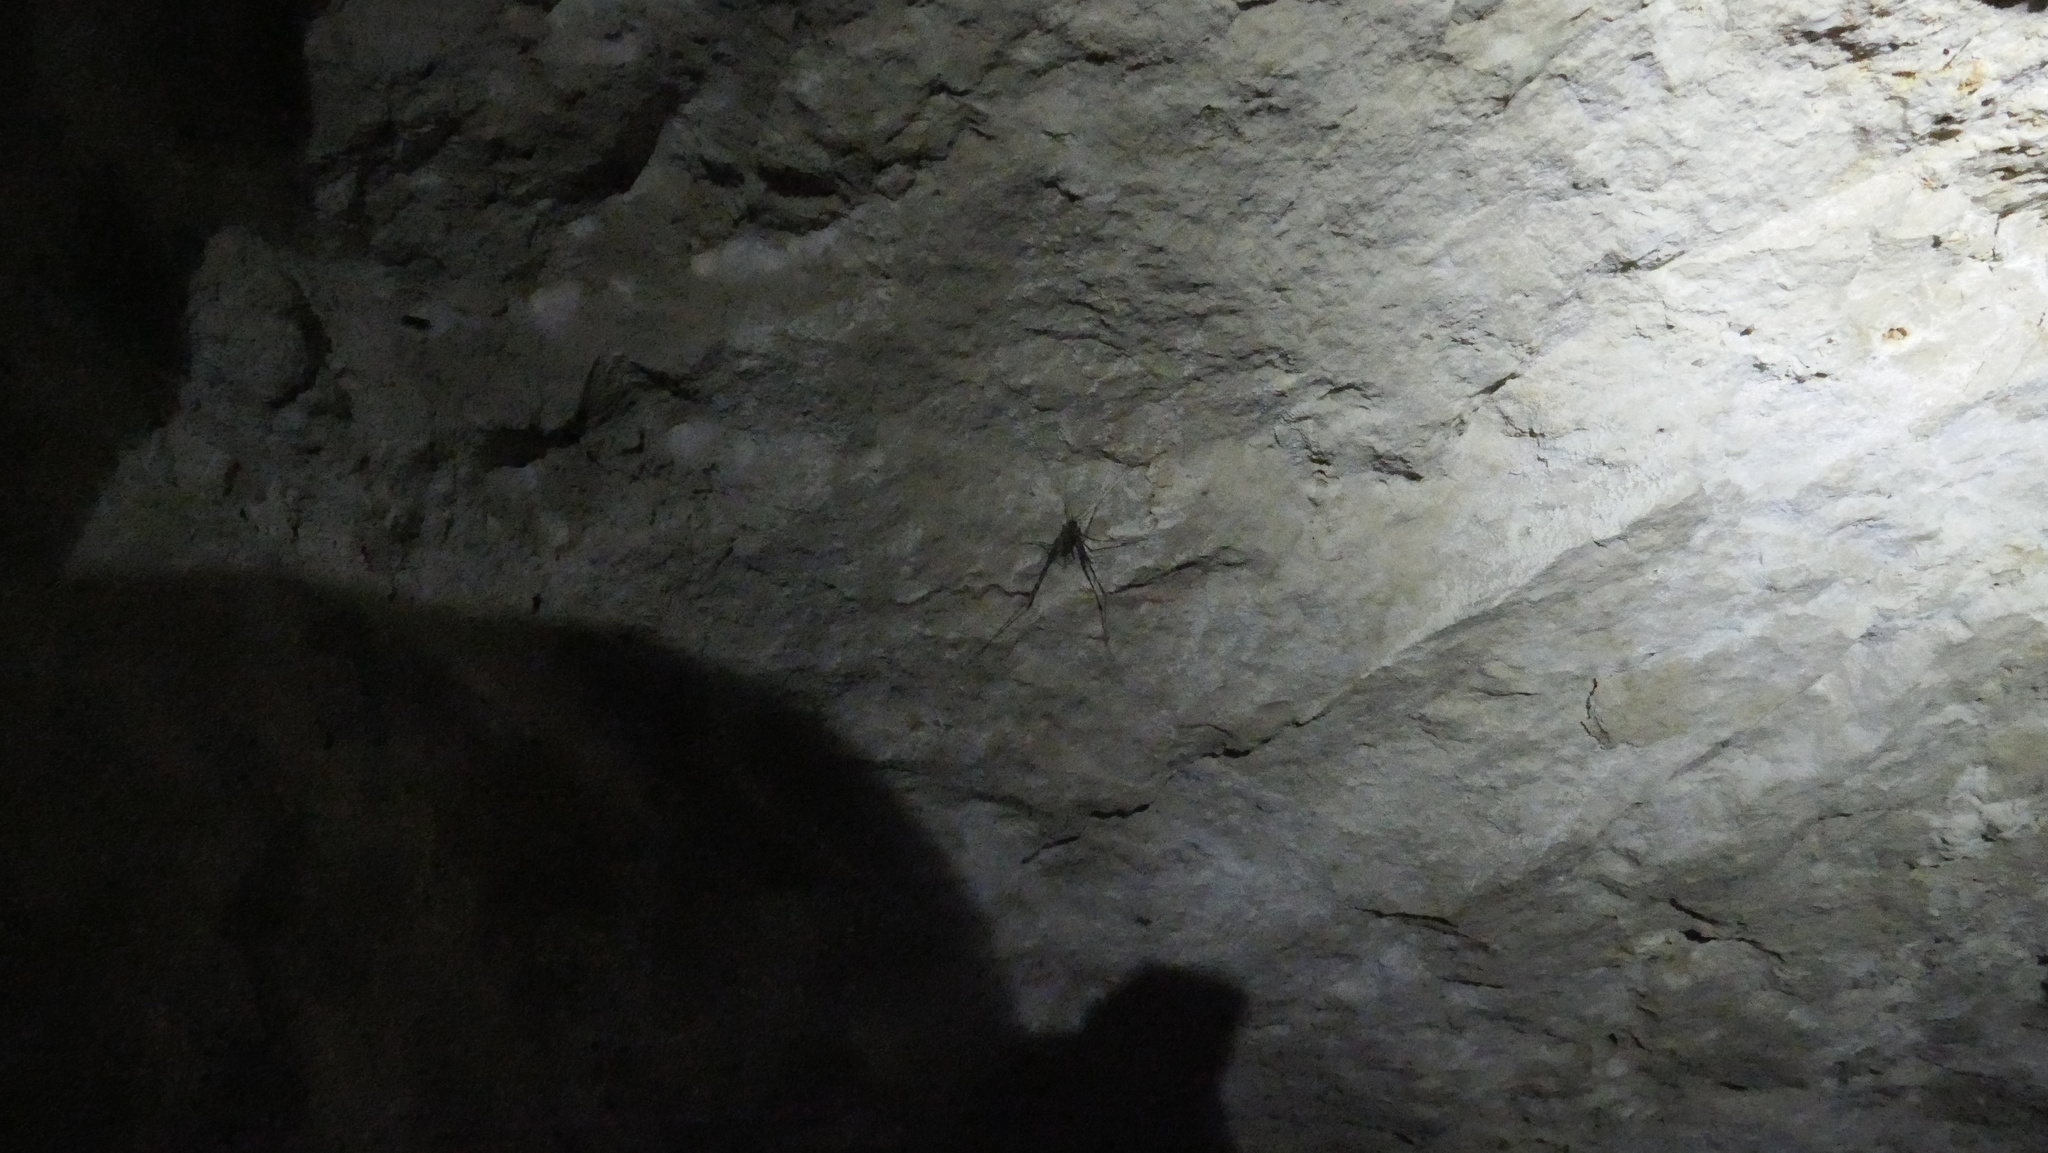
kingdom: Animalia
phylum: Arthropoda
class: Insecta
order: Orthoptera
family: Rhaphidophoridae
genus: Novotettix
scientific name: Novotettix naracoortensis
